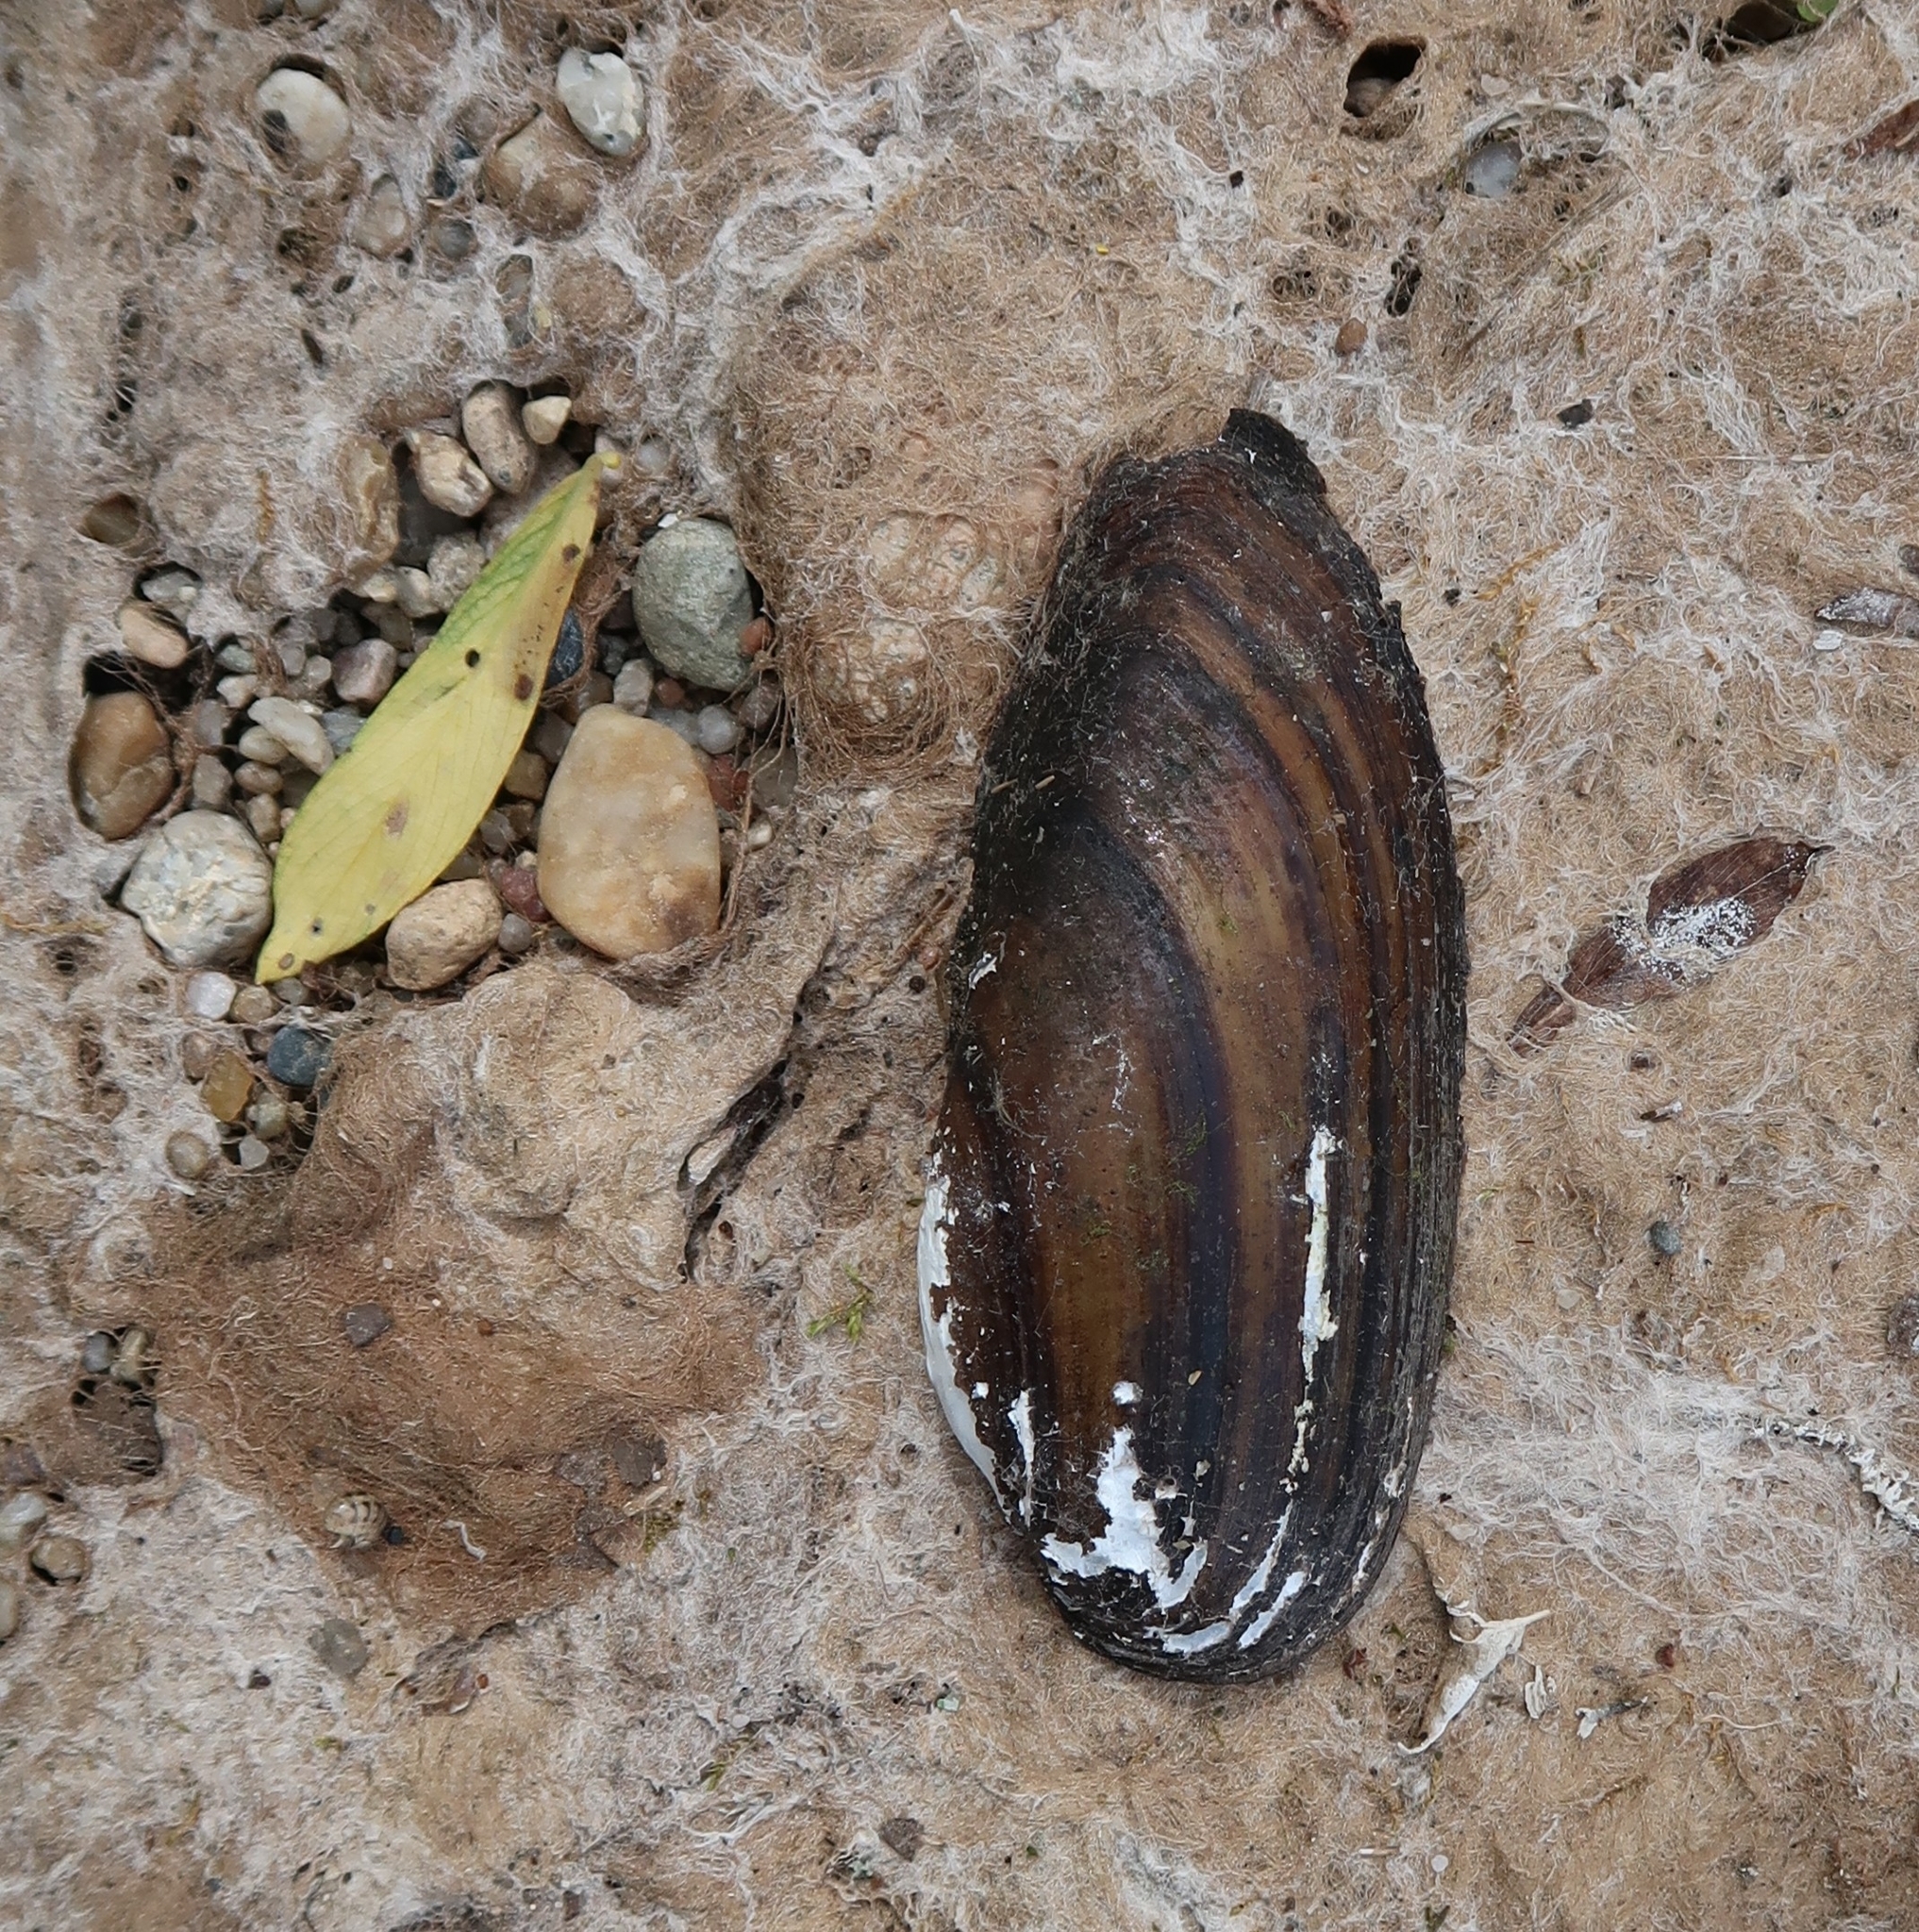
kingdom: Animalia
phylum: Mollusca
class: Bivalvia
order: Unionida
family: Unionidae
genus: Unio
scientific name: Unio pictorum
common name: Painter's mussel
